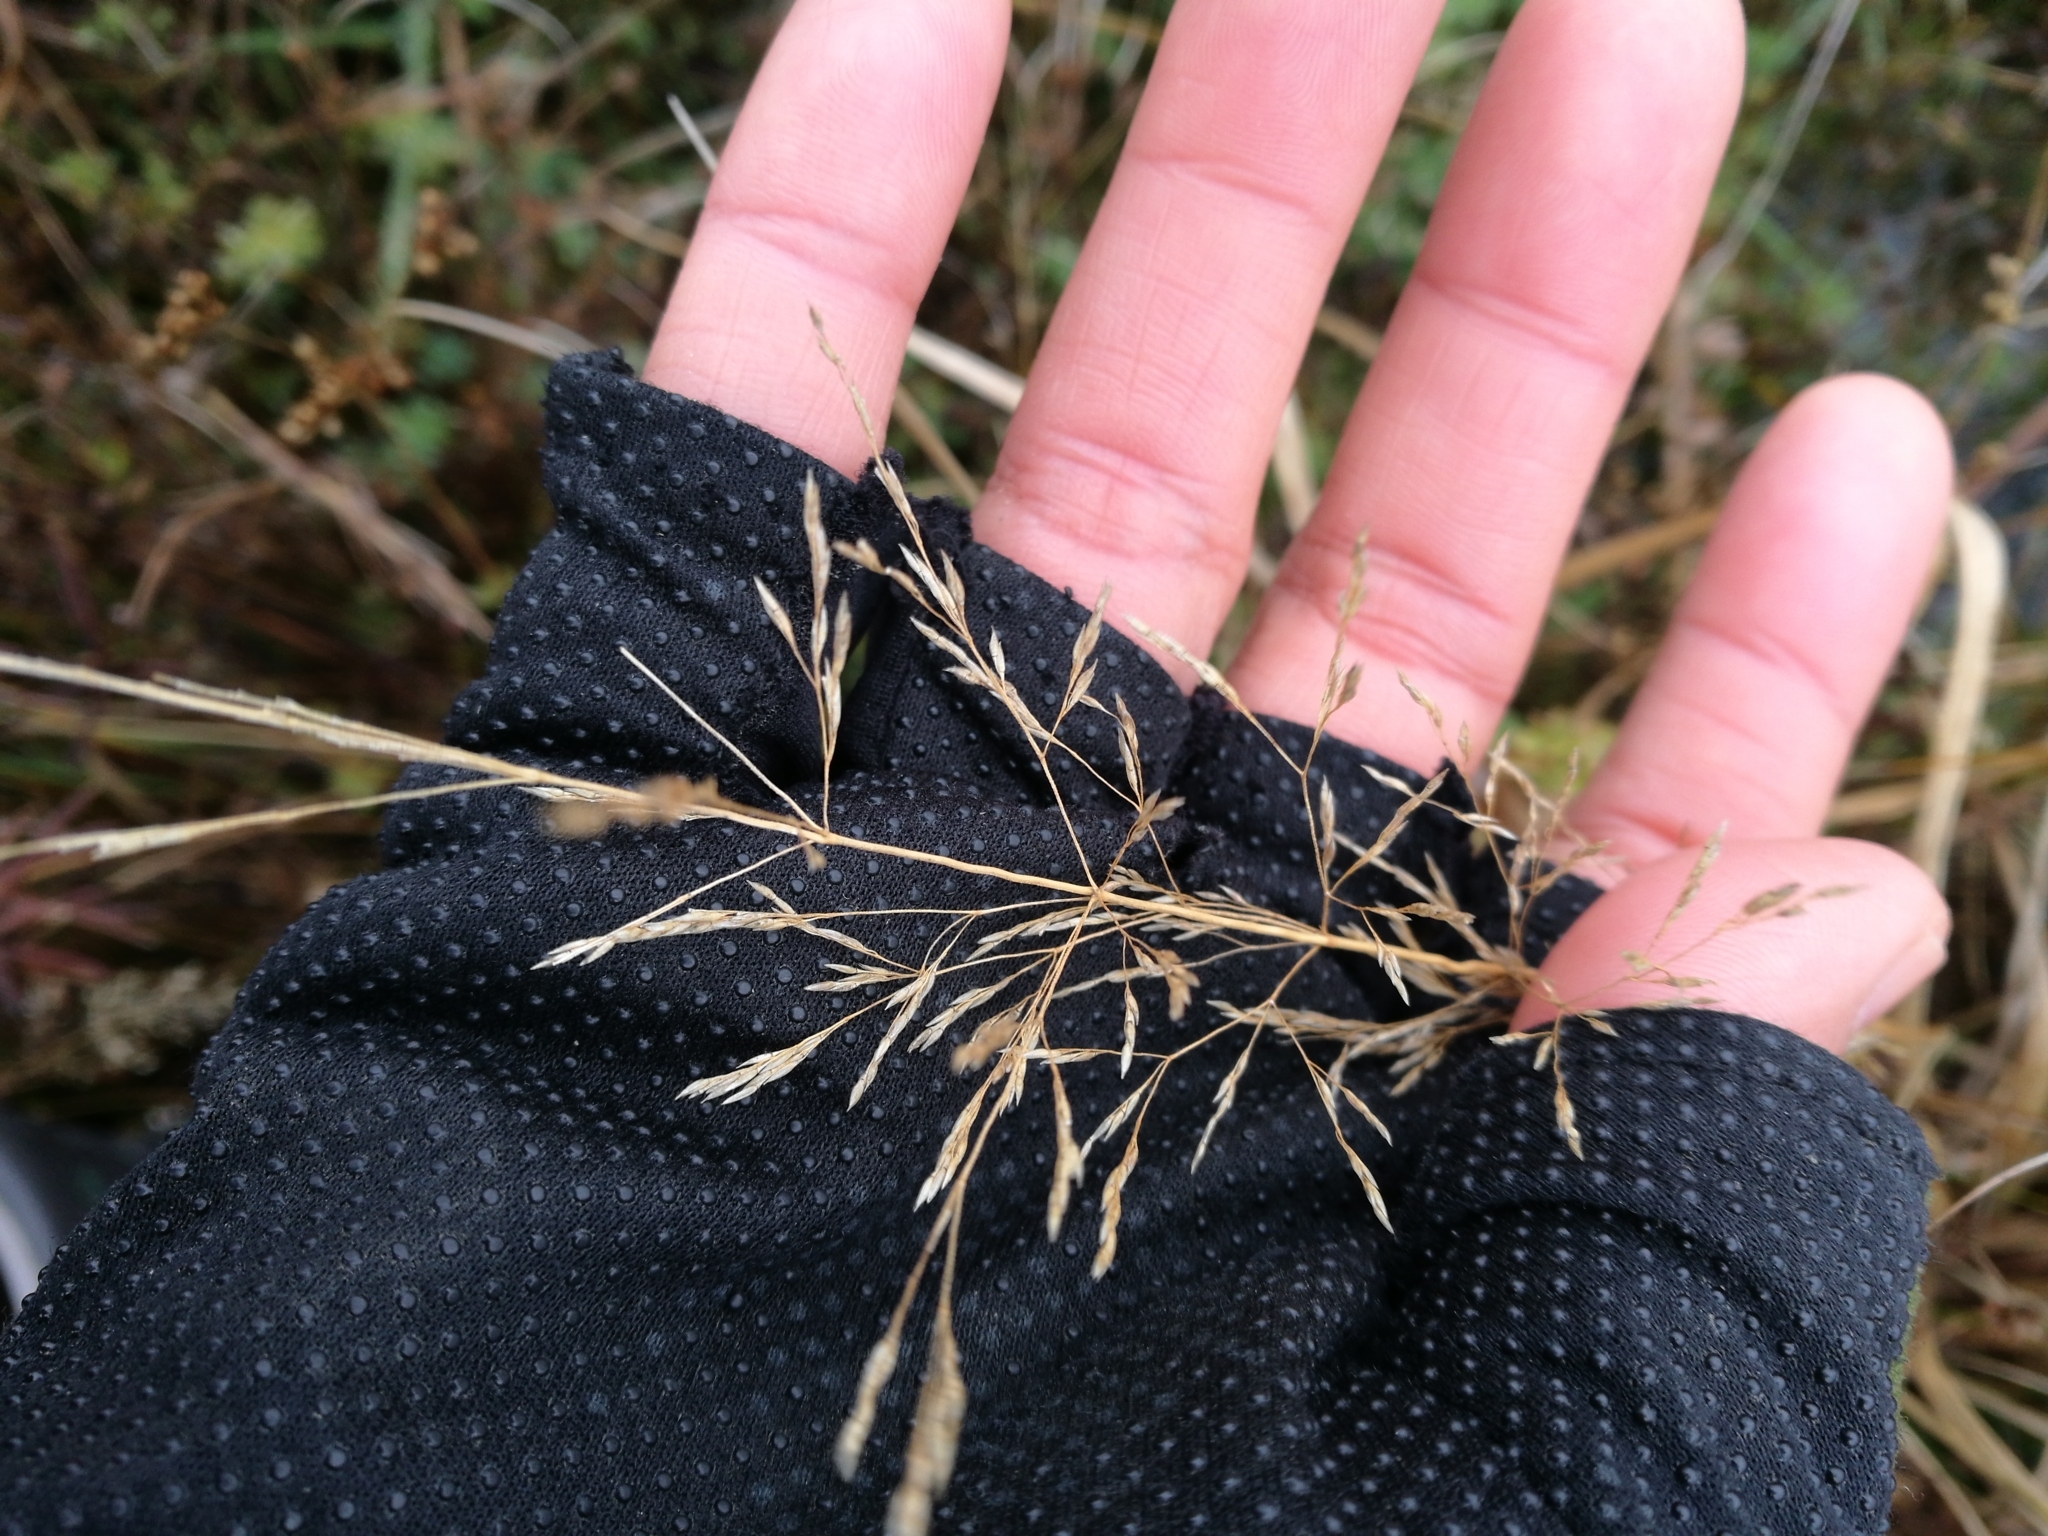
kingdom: Plantae
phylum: Tracheophyta
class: Liliopsida
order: Poales
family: Poaceae
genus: Agrostis
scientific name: Agrostis capillaris
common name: Colonial bentgrass
